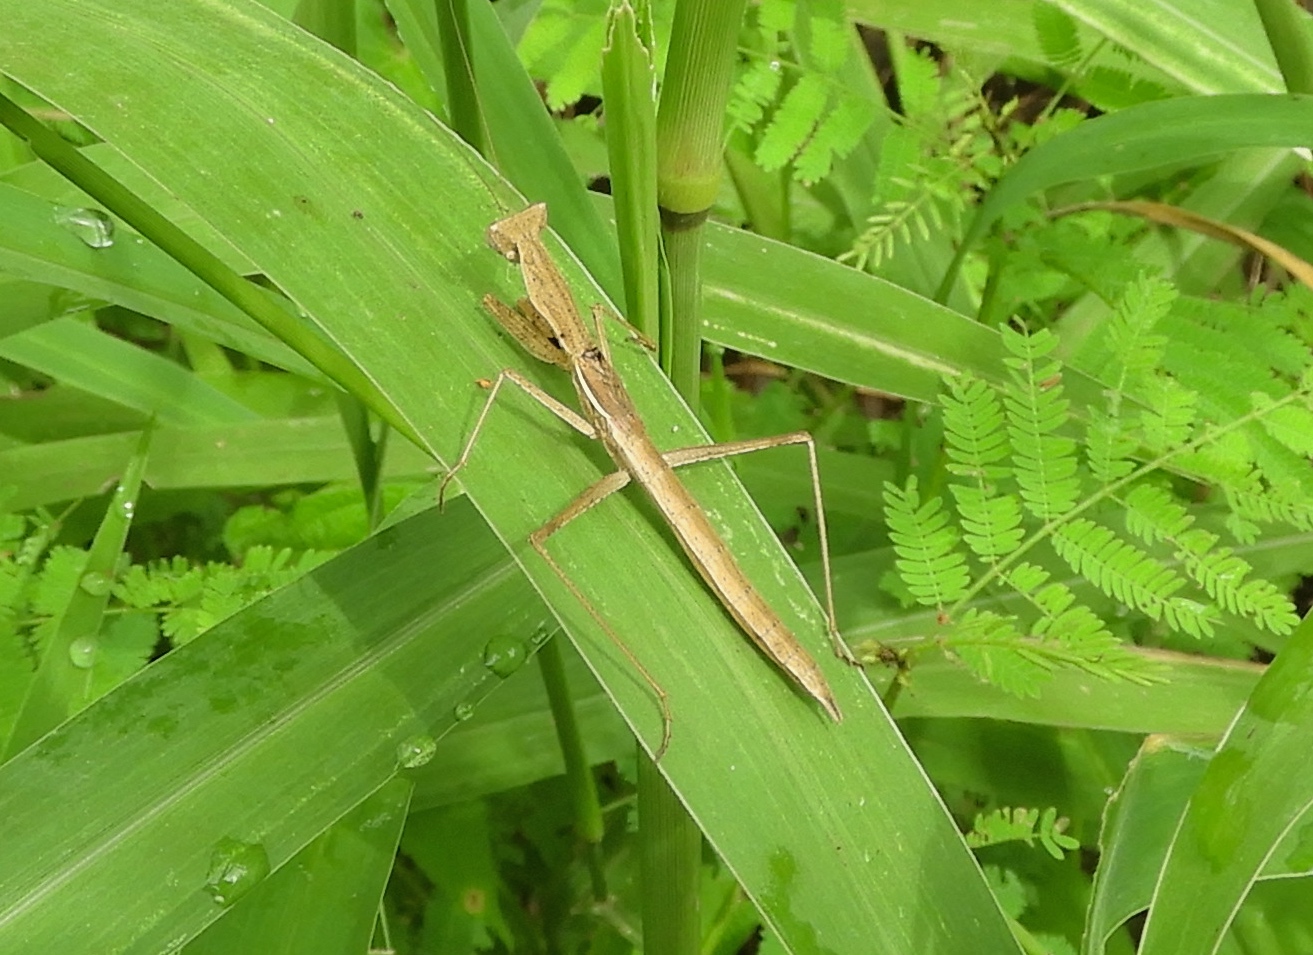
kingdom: Animalia
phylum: Arthropoda
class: Insecta
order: Mantodea
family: Amelidae
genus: Yersinia
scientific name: Yersinia mexicana
